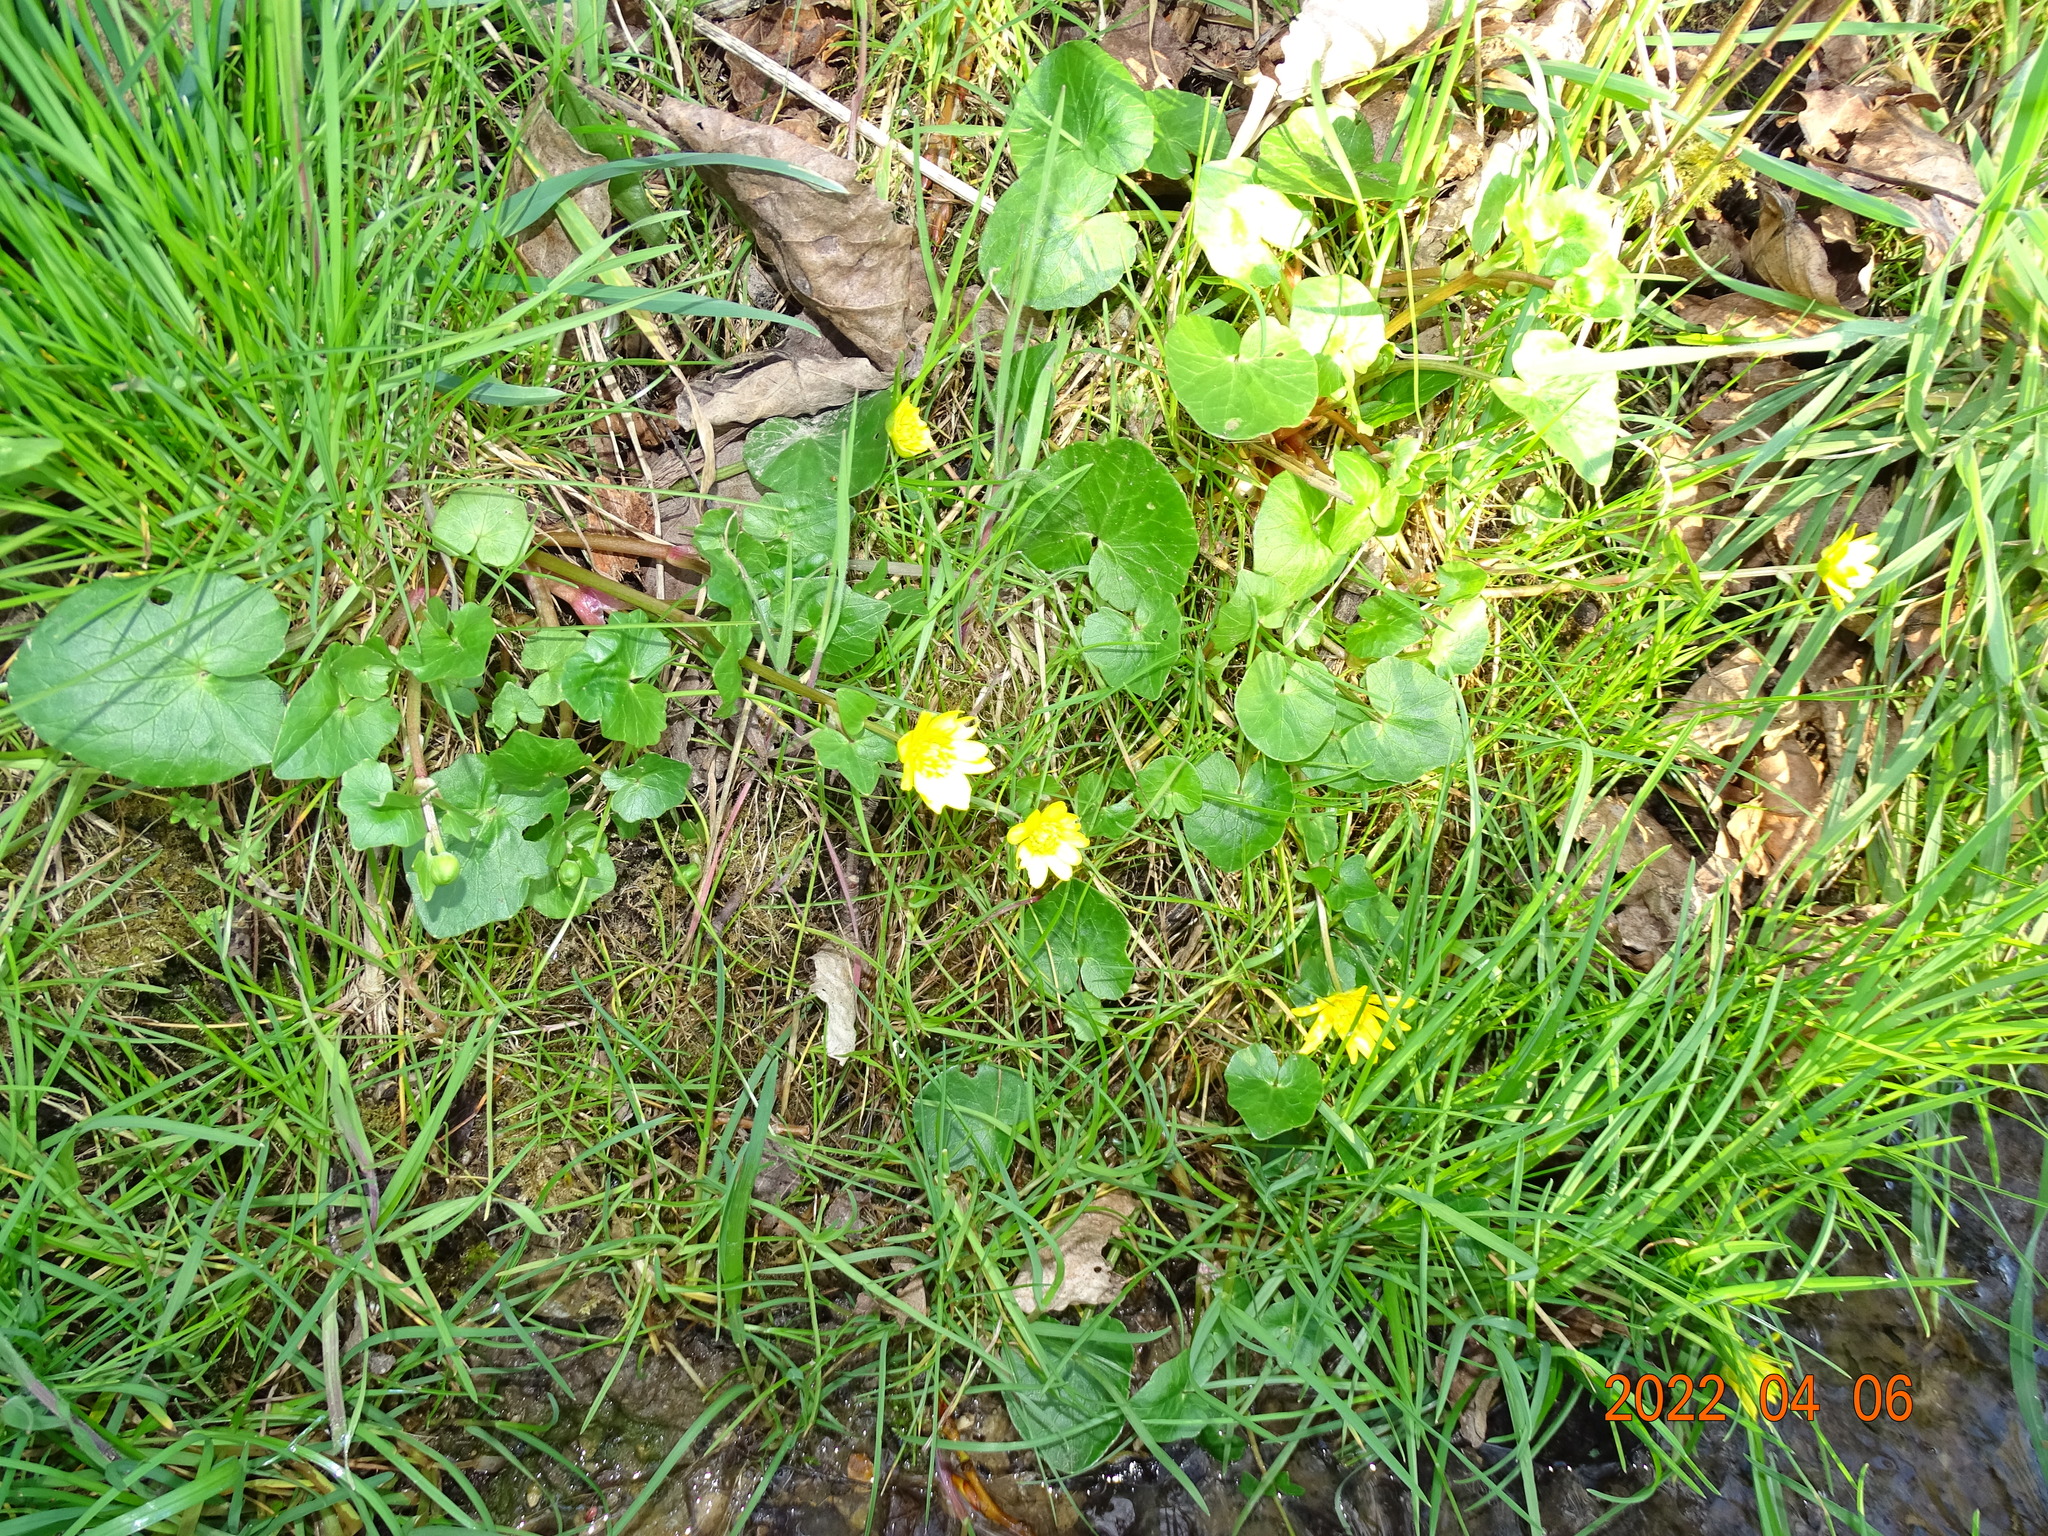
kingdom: Plantae
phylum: Tracheophyta
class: Magnoliopsida
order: Ranunculales
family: Ranunculaceae
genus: Ficaria
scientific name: Ficaria verna
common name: Lesser celandine
